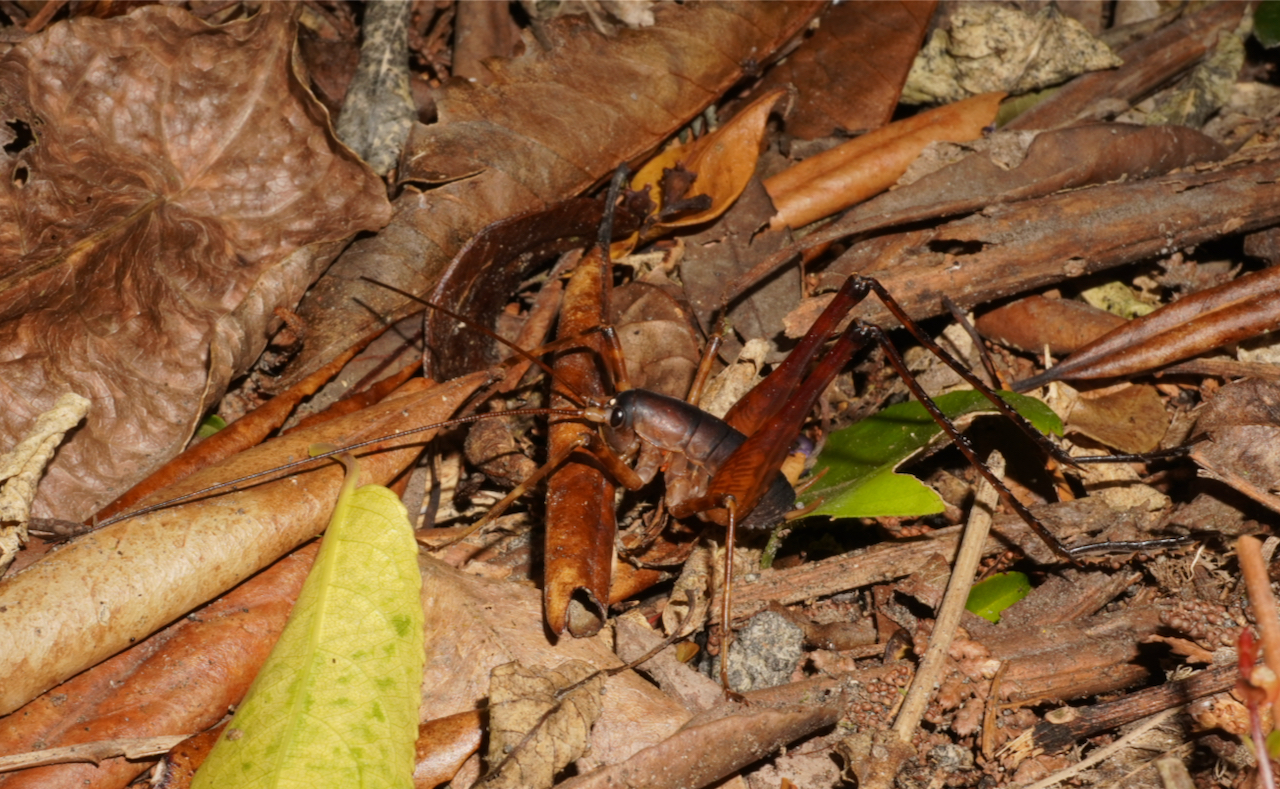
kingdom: Animalia
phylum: Arthropoda
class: Insecta
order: Orthoptera
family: Rhaphidophoridae
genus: Pachyrhamma
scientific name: Pachyrhamma longicauda
